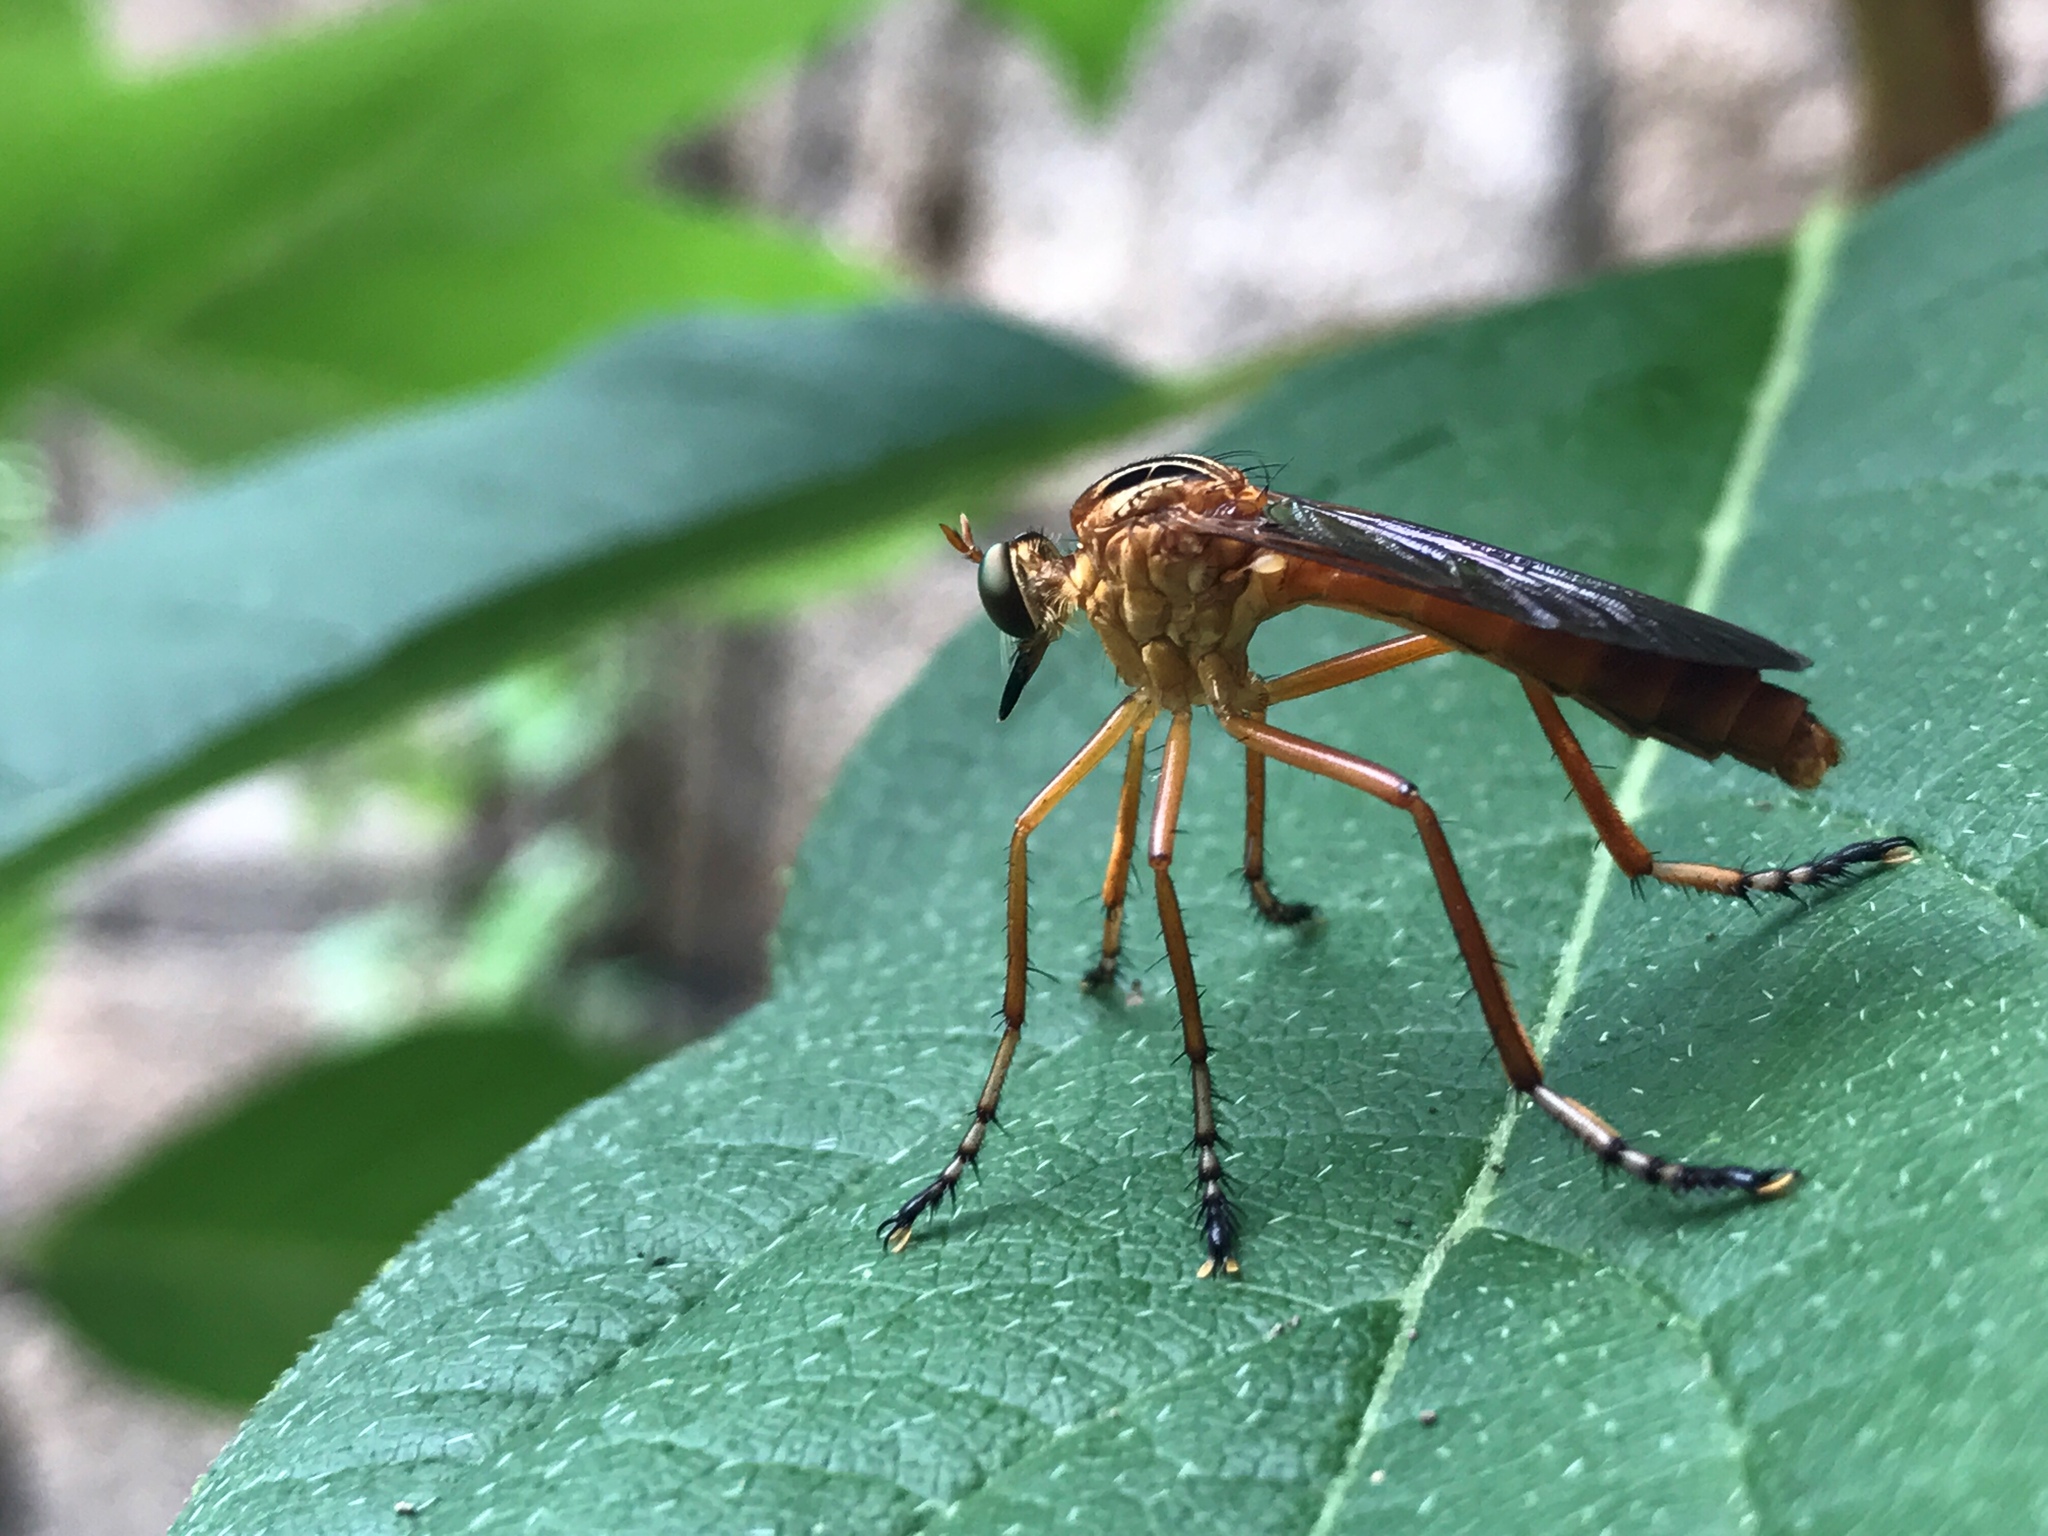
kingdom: Animalia
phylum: Arthropoda
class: Insecta
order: Diptera
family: Asilidae
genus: Diogmites
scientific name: Diogmites neoternatus
